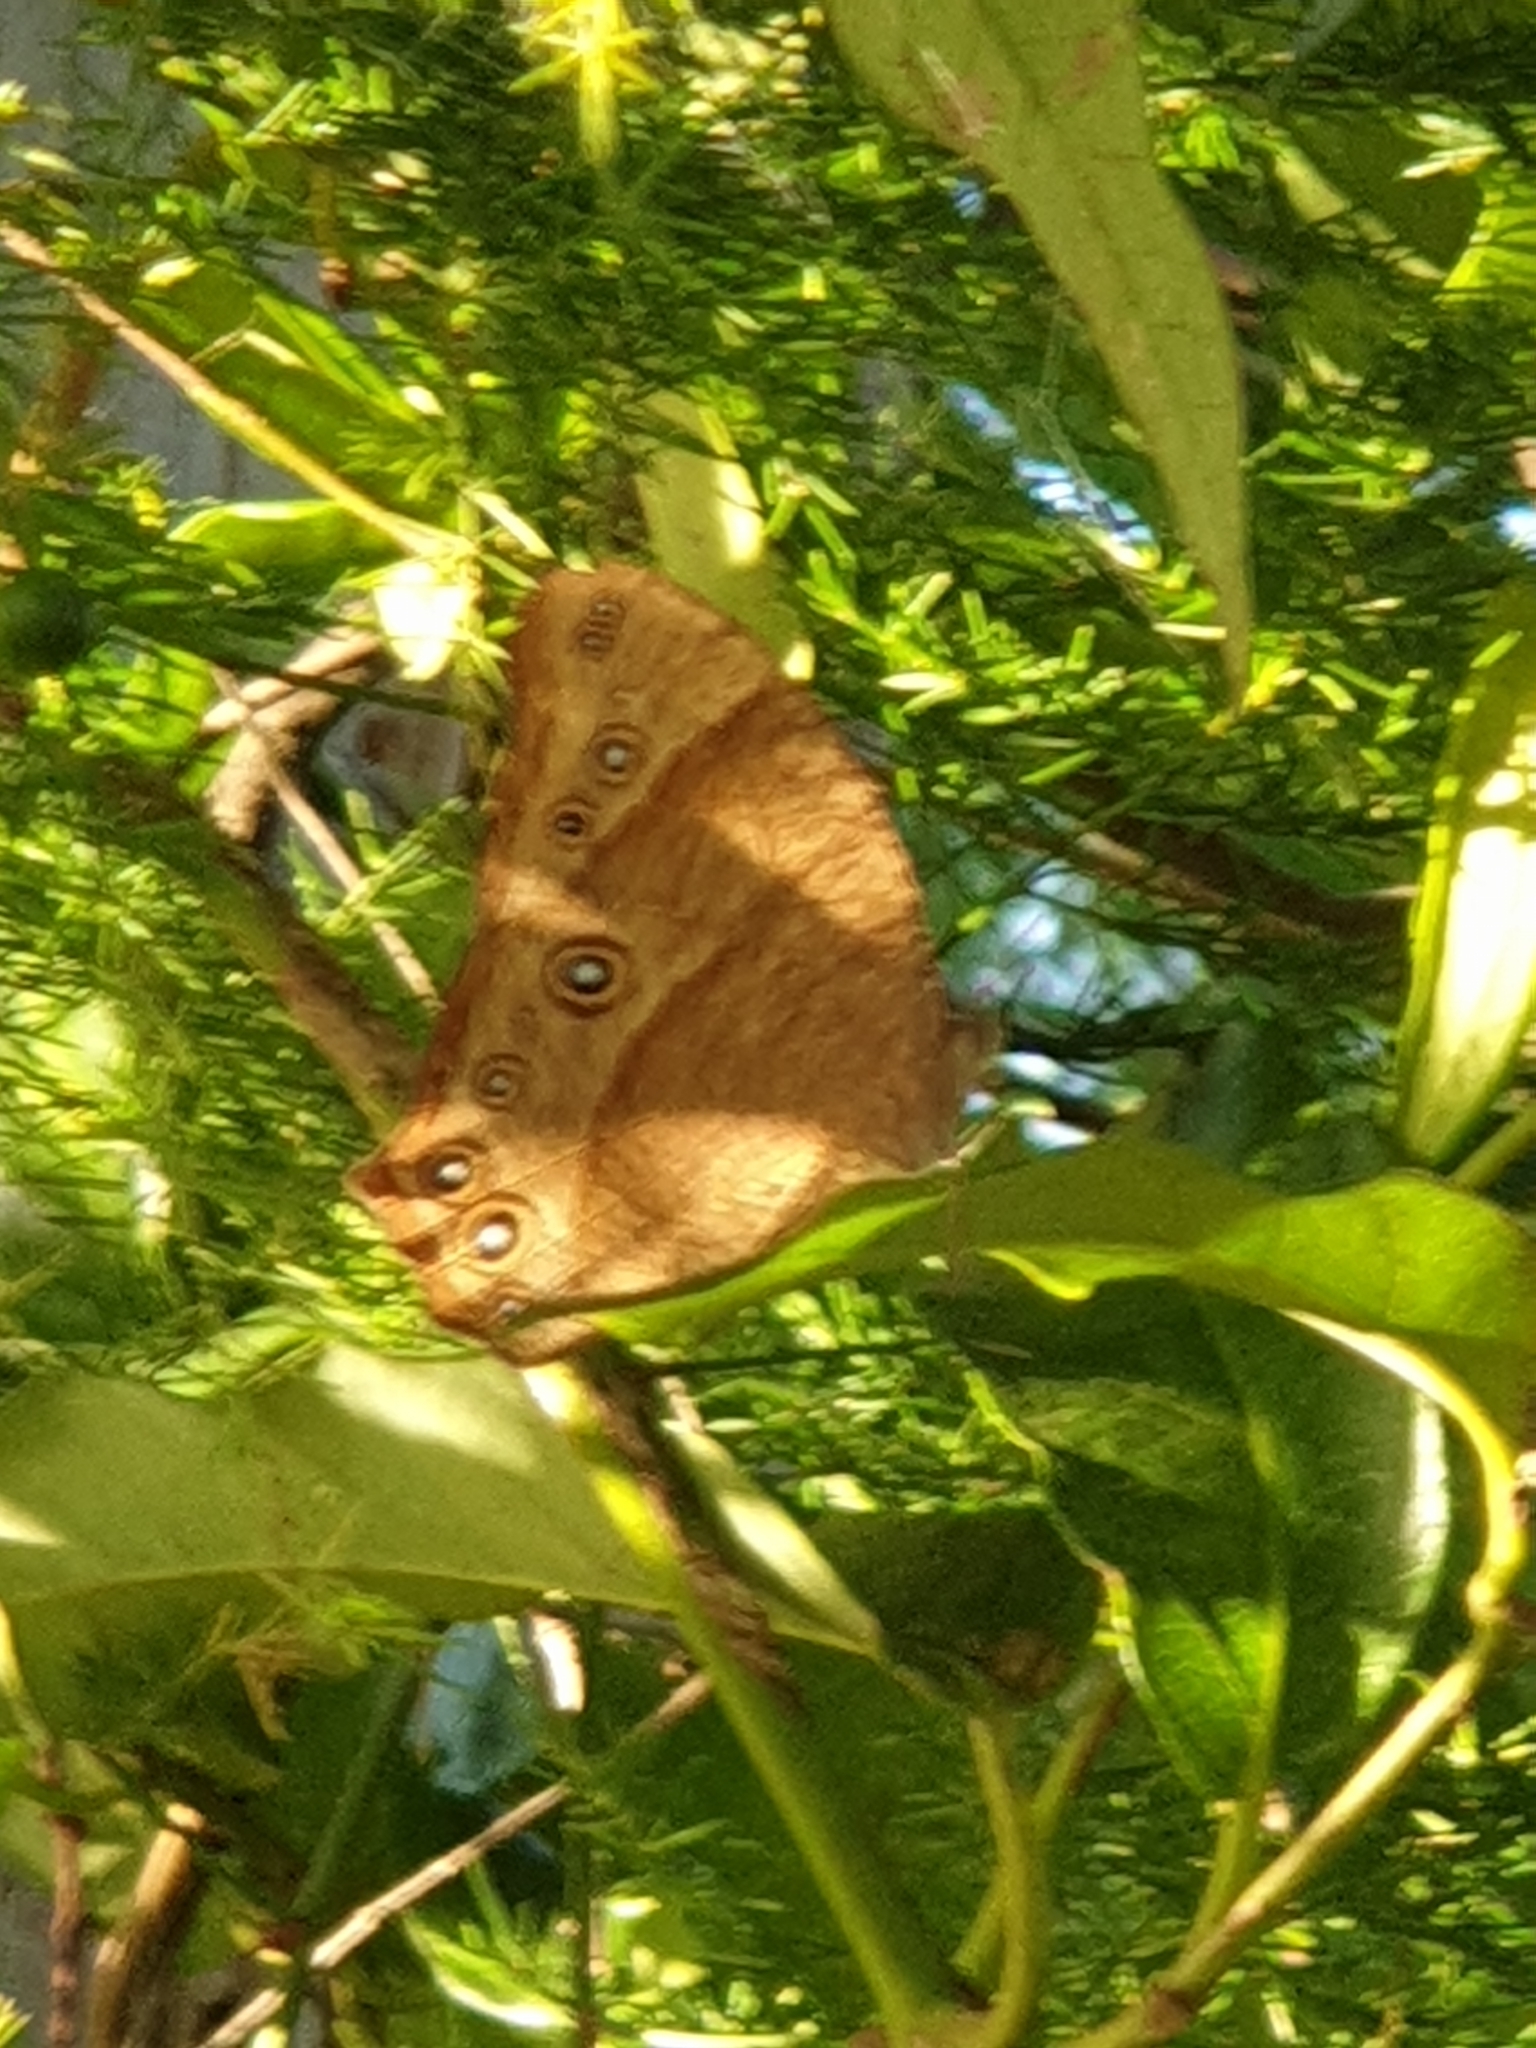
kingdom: Animalia
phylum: Arthropoda
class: Insecta
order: Lepidoptera
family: Nymphalidae
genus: Melanitis
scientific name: Melanitis leda
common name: Twilight brown
